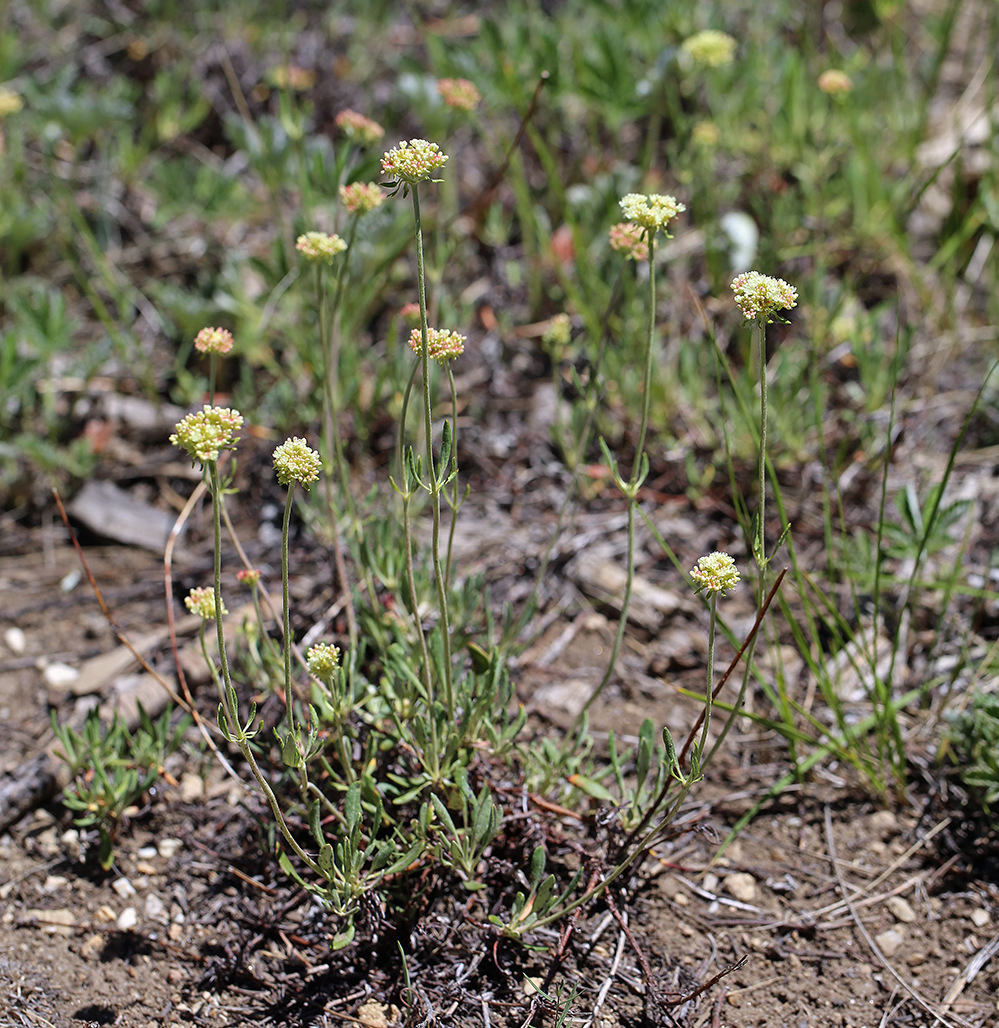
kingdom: Plantae
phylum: Tracheophyta
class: Magnoliopsida
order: Caryophyllales
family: Polygonaceae
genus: Eriogonum
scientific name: Eriogonum heracleoides
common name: Wyeth's buckwheat
